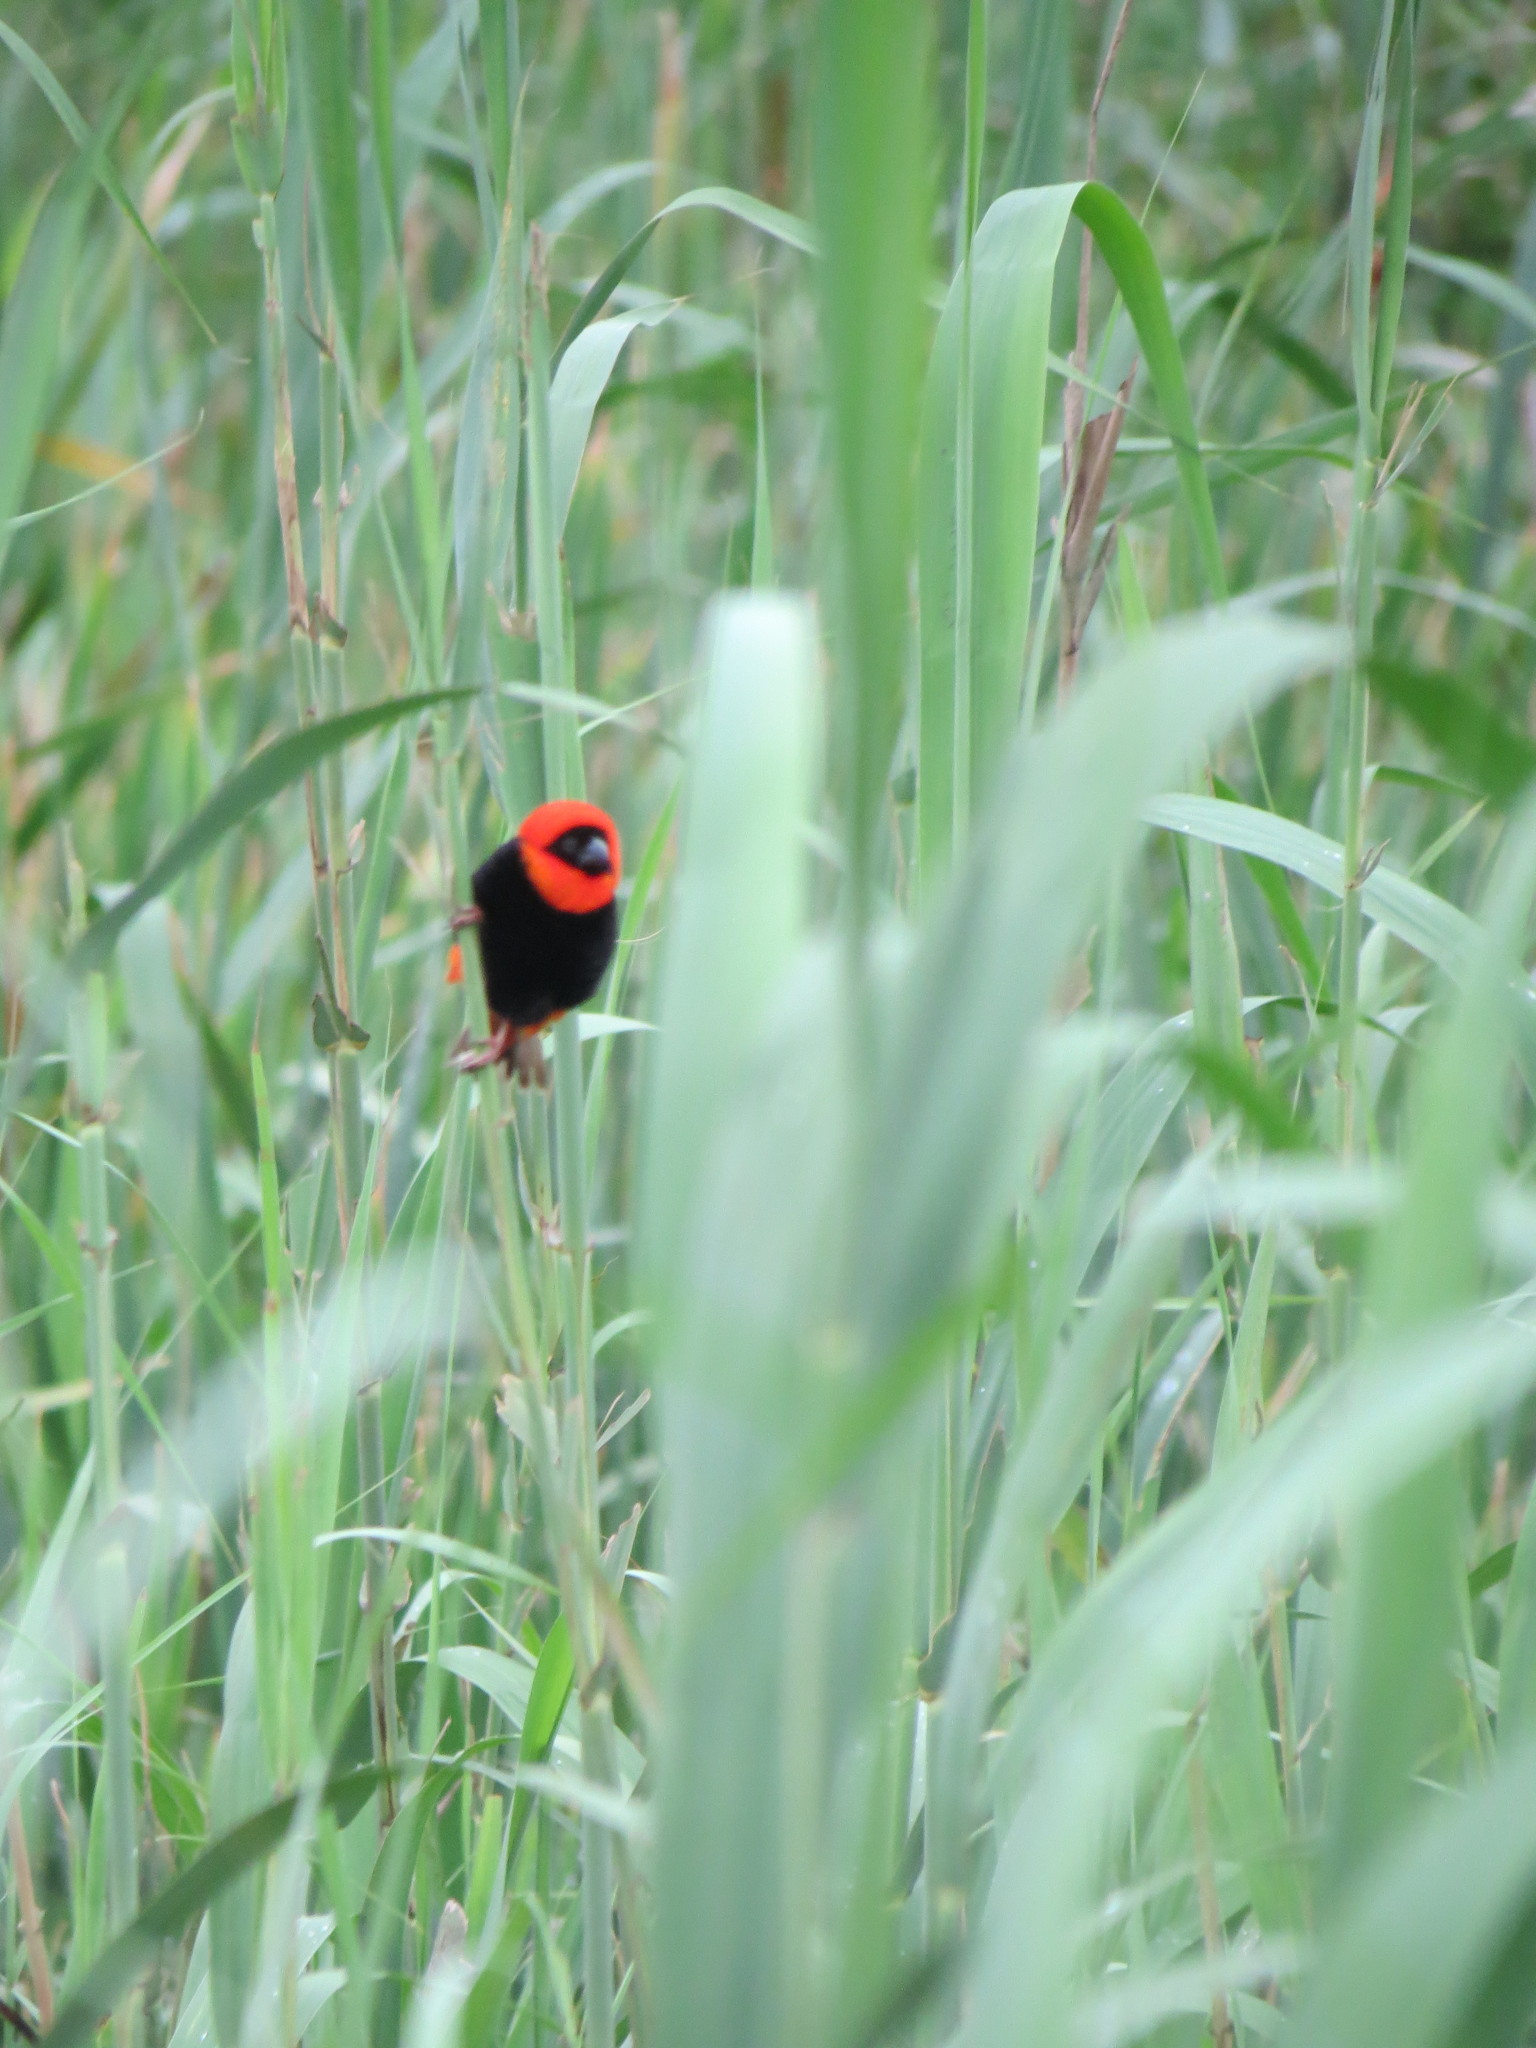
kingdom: Animalia
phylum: Chordata
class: Aves
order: Passeriformes
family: Ploceidae
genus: Euplectes
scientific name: Euplectes orix
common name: Southern red bishop
